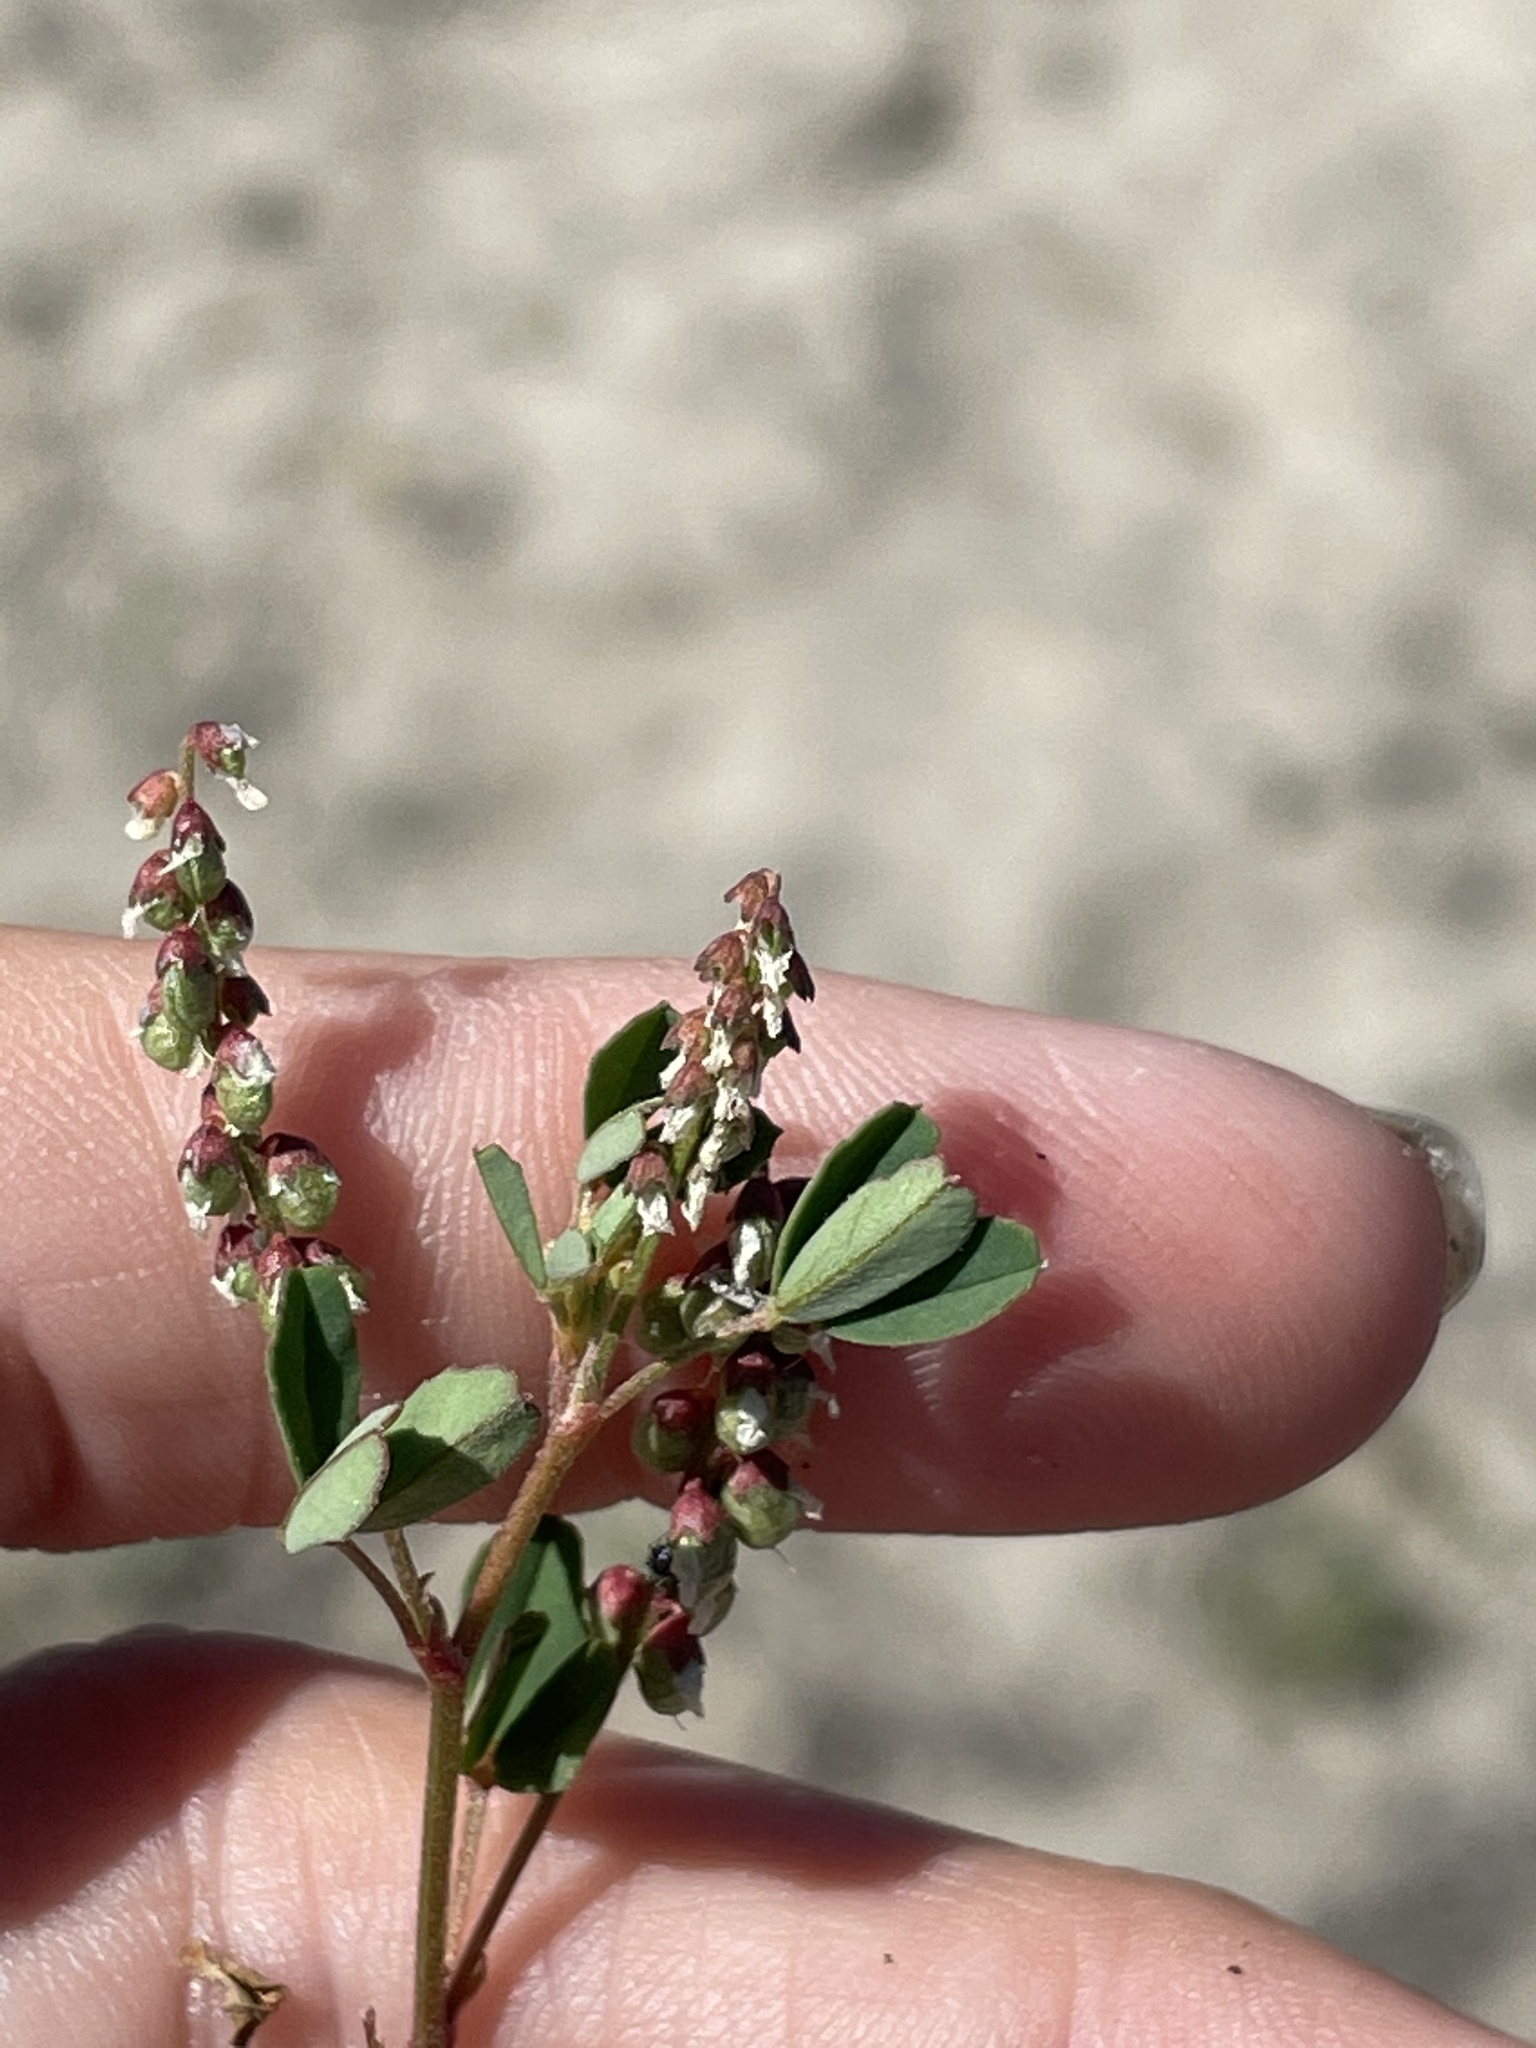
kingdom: Plantae
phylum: Tracheophyta
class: Magnoliopsida
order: Fabales
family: Fabaceae
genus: Melilotus
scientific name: Melilotus indicus
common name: Small melilot
